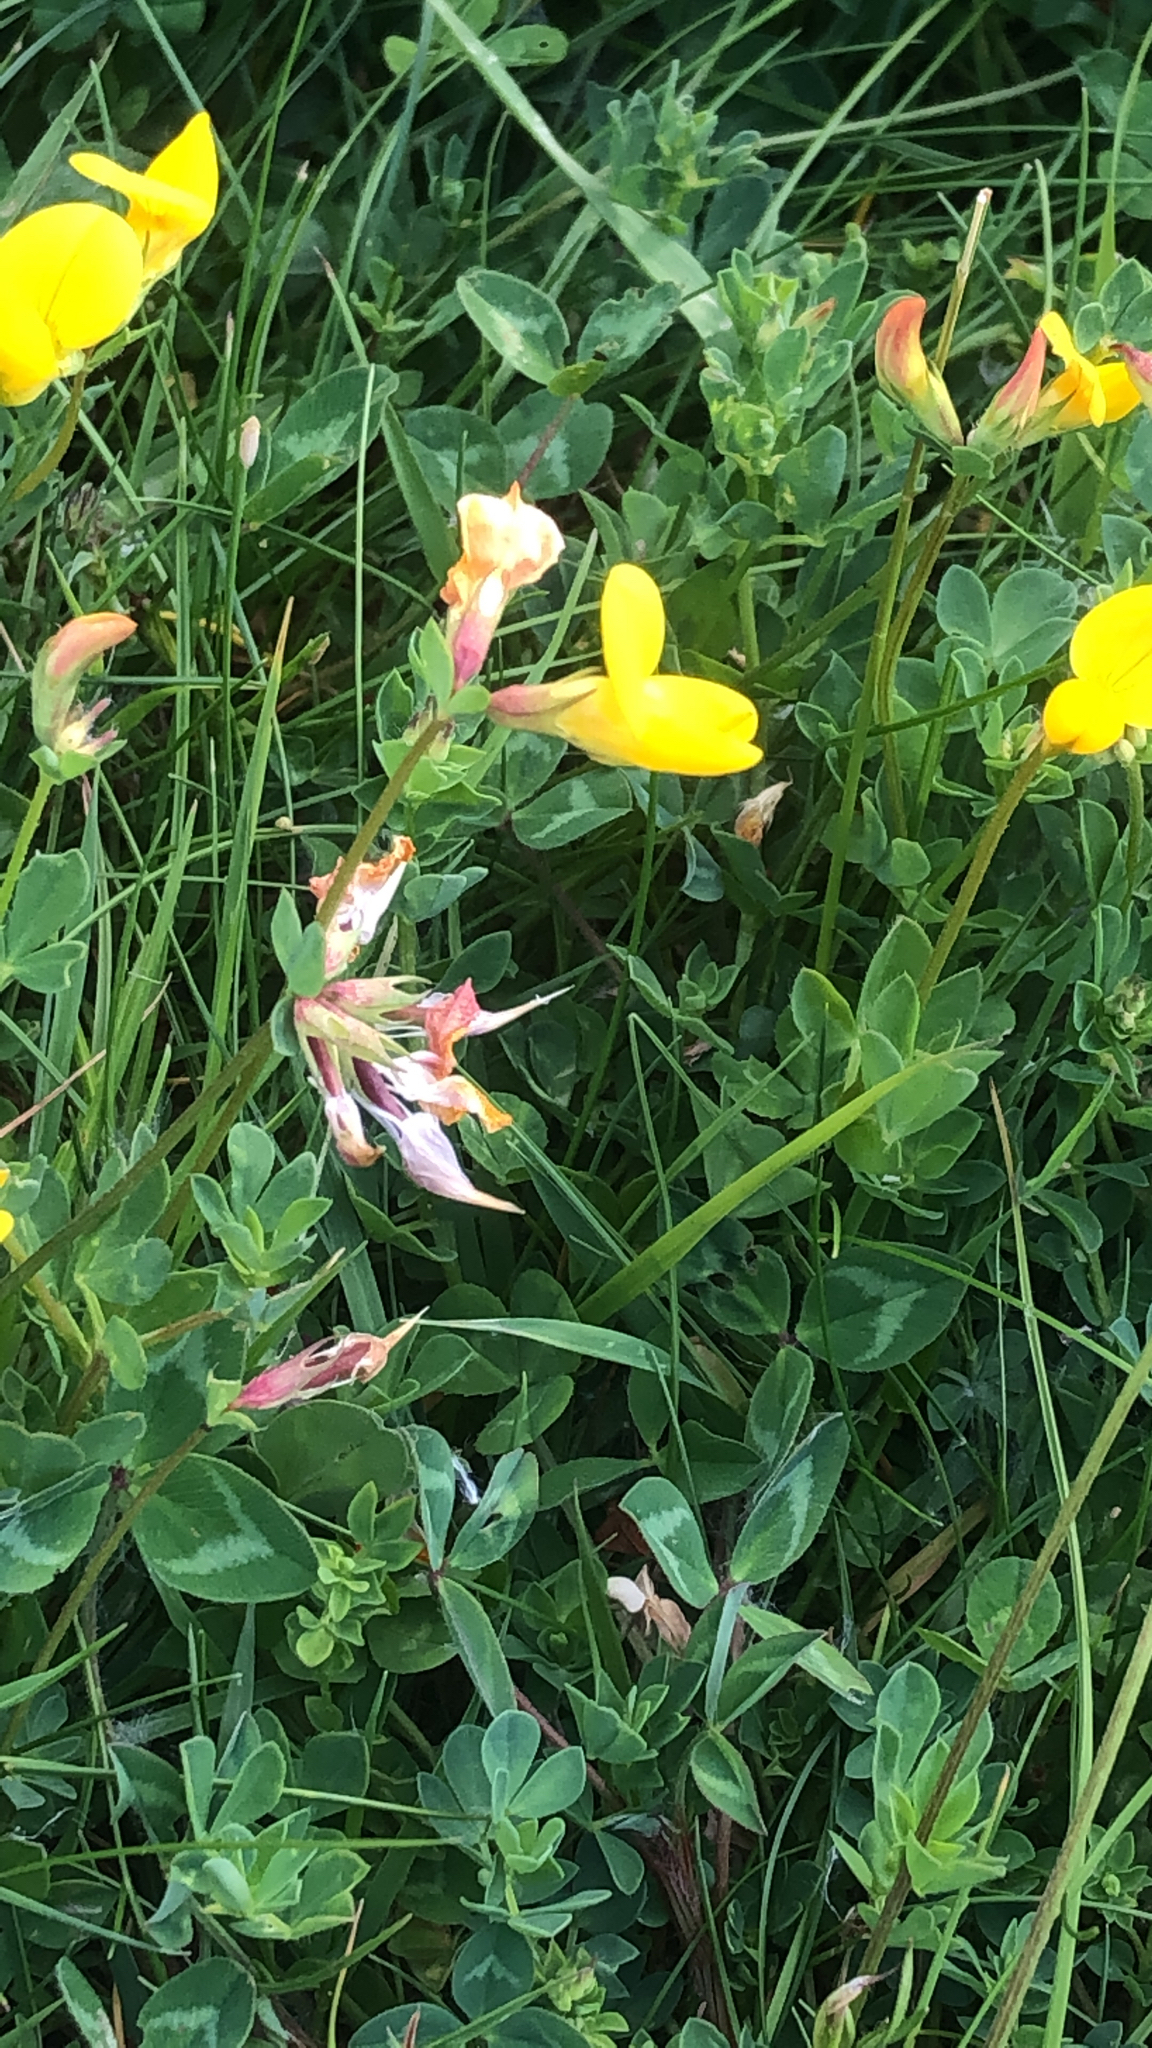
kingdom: Plantae
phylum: Tracheophyta
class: Magnoliopsida
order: Fabales
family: Fabaceae
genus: Lotus
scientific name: Lotus corniculatus
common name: Common bird's-foot-trefoil
